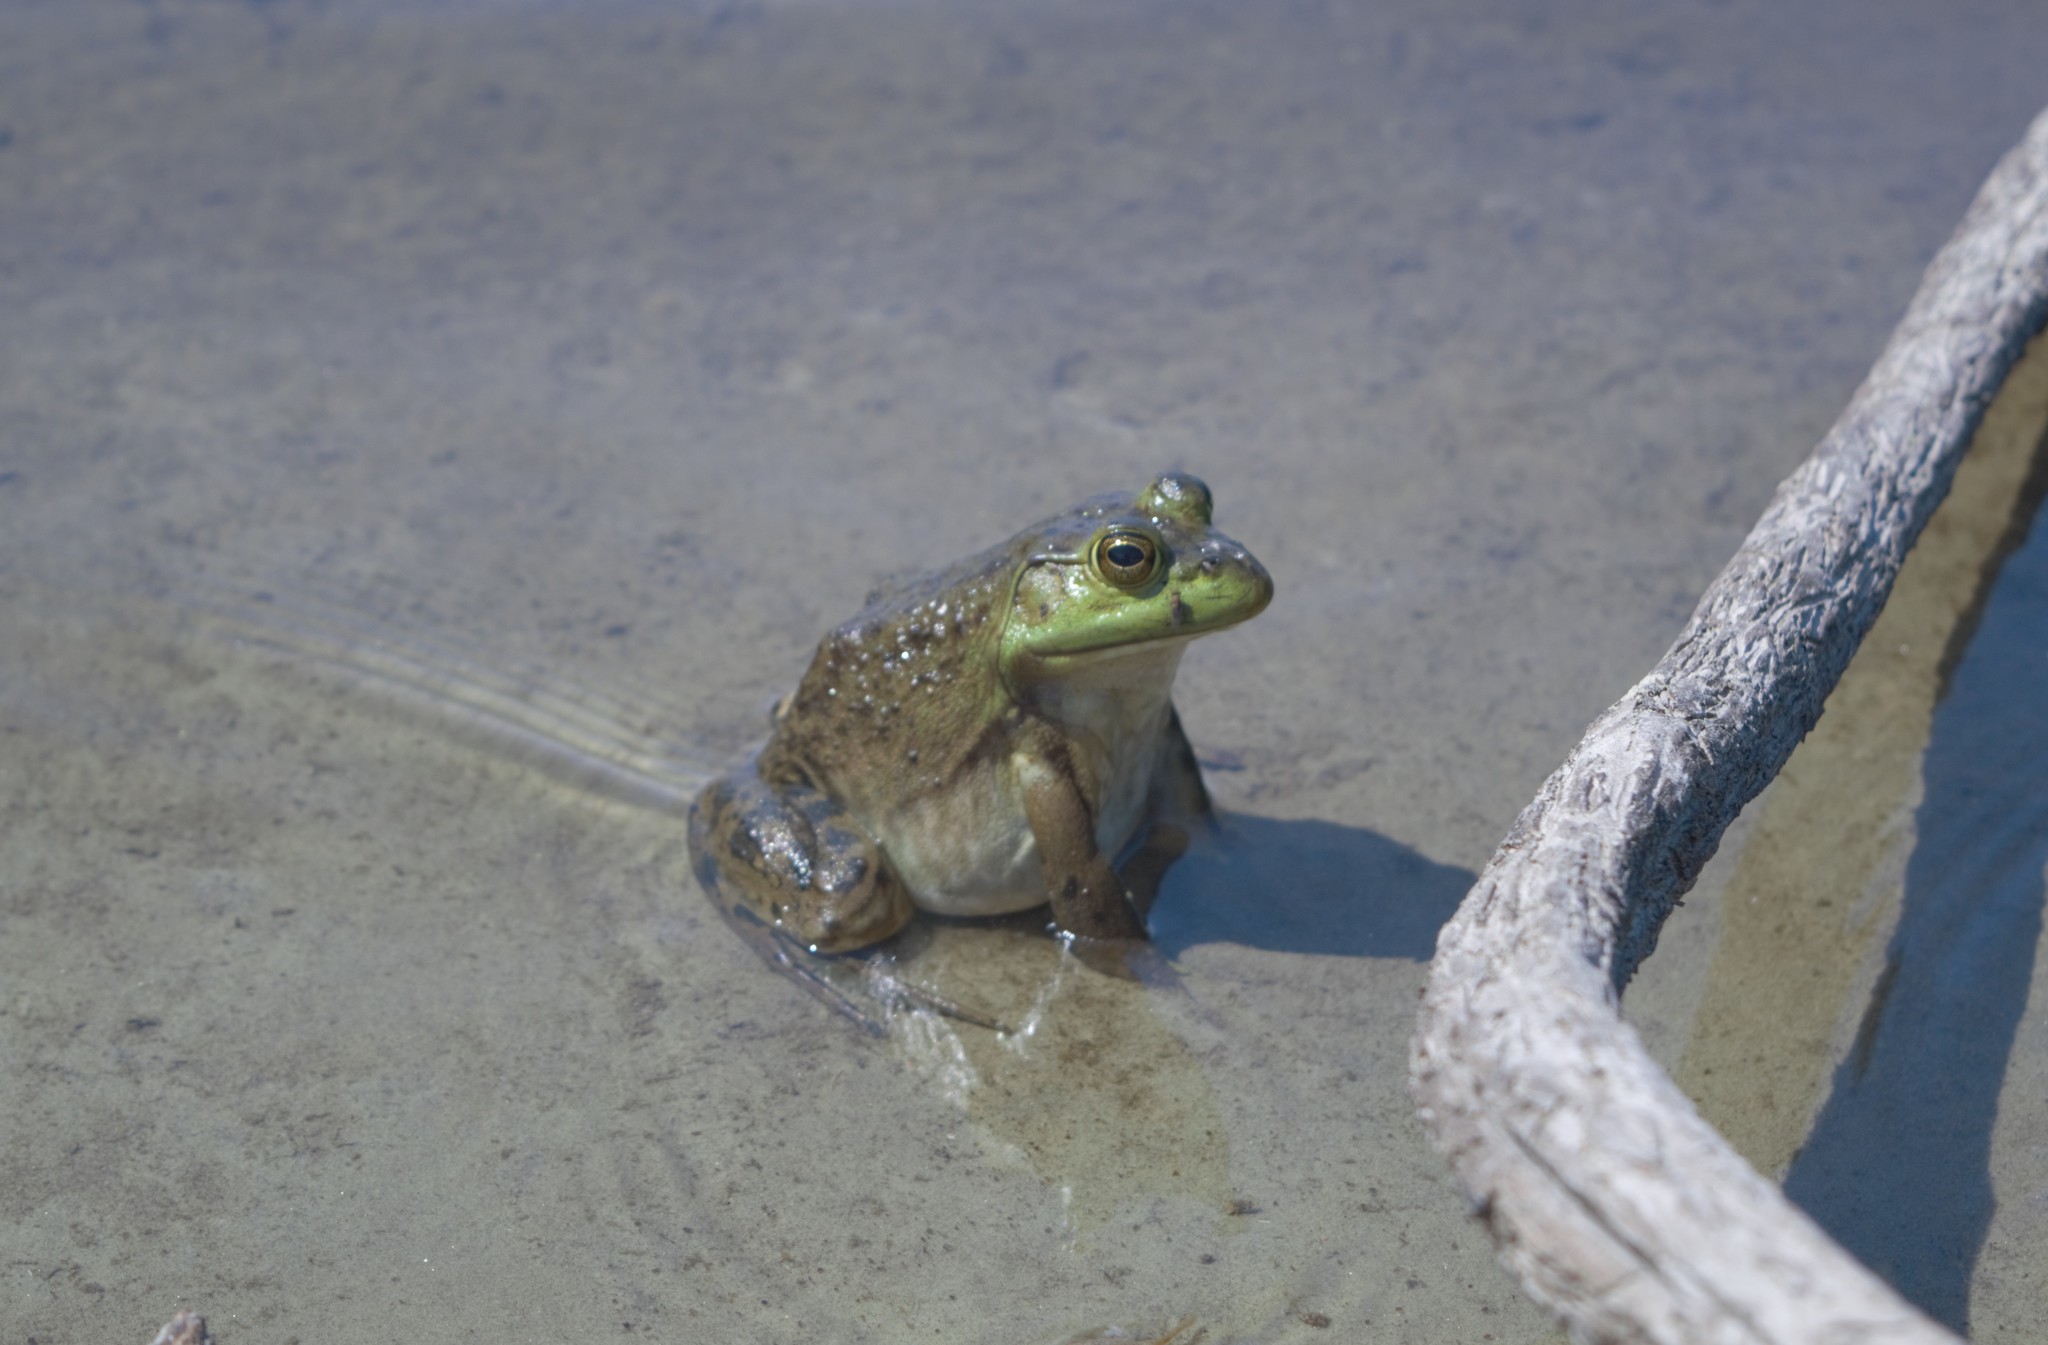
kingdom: Animalia
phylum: Chordata
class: Amphibia
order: Anura
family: Ranidae
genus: Lithobates
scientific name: Lithobates catesbeianus
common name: American bullfrog
